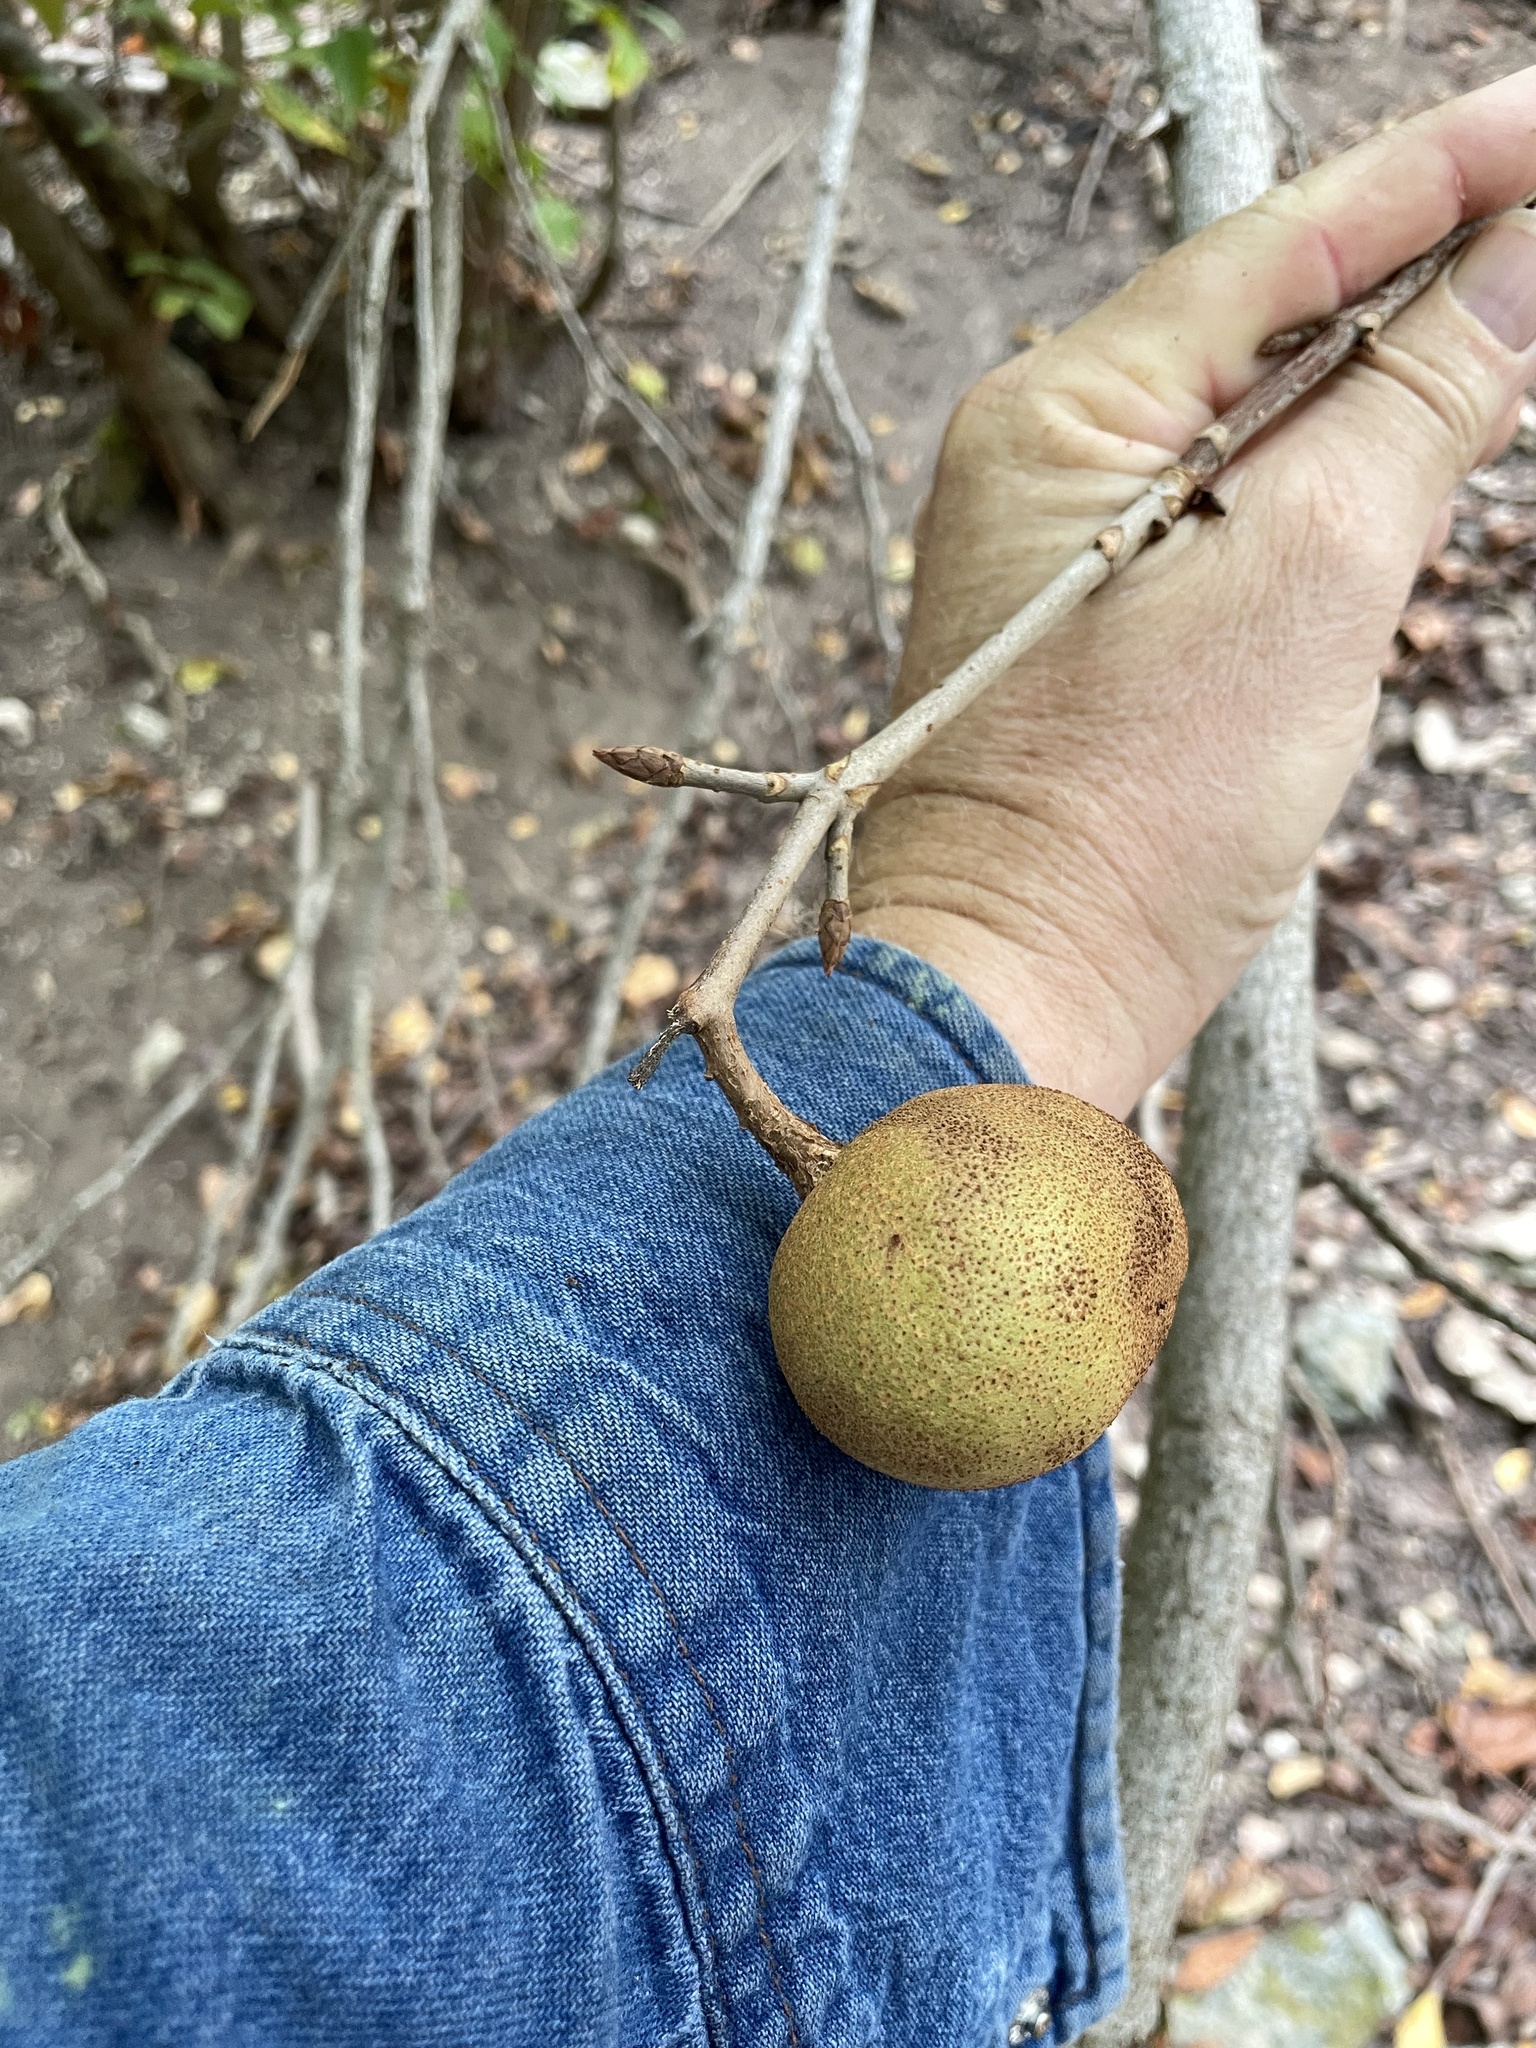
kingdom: Plantae
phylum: Tracheophyta
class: Magnoliopsida
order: Sapindales
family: Sapindaceae
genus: Aesculus
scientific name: Aesculus glabra
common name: Ohio buckeye
